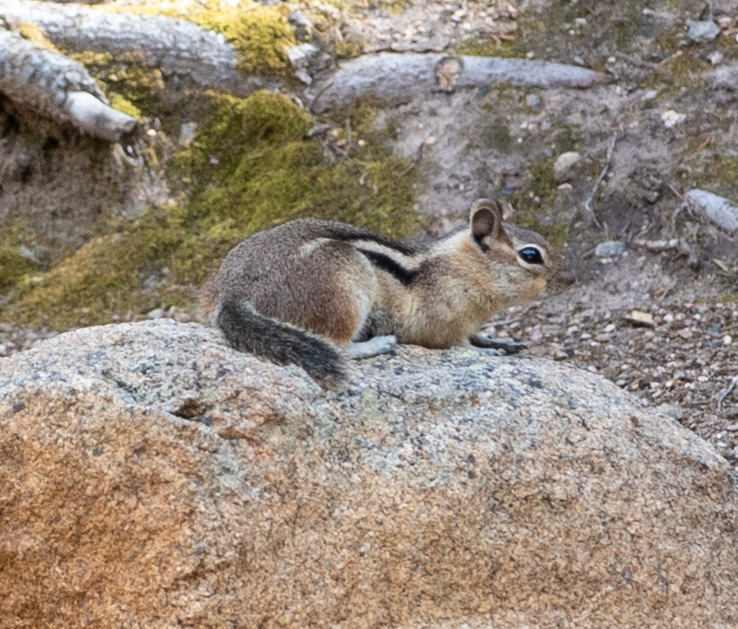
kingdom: Animalia
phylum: Chordata
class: Mammalia
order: Rodentia
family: Sciuridae
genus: Callospermophilus
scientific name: Callospermophilus lateralis
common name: Golden-mantled ground squirrel
